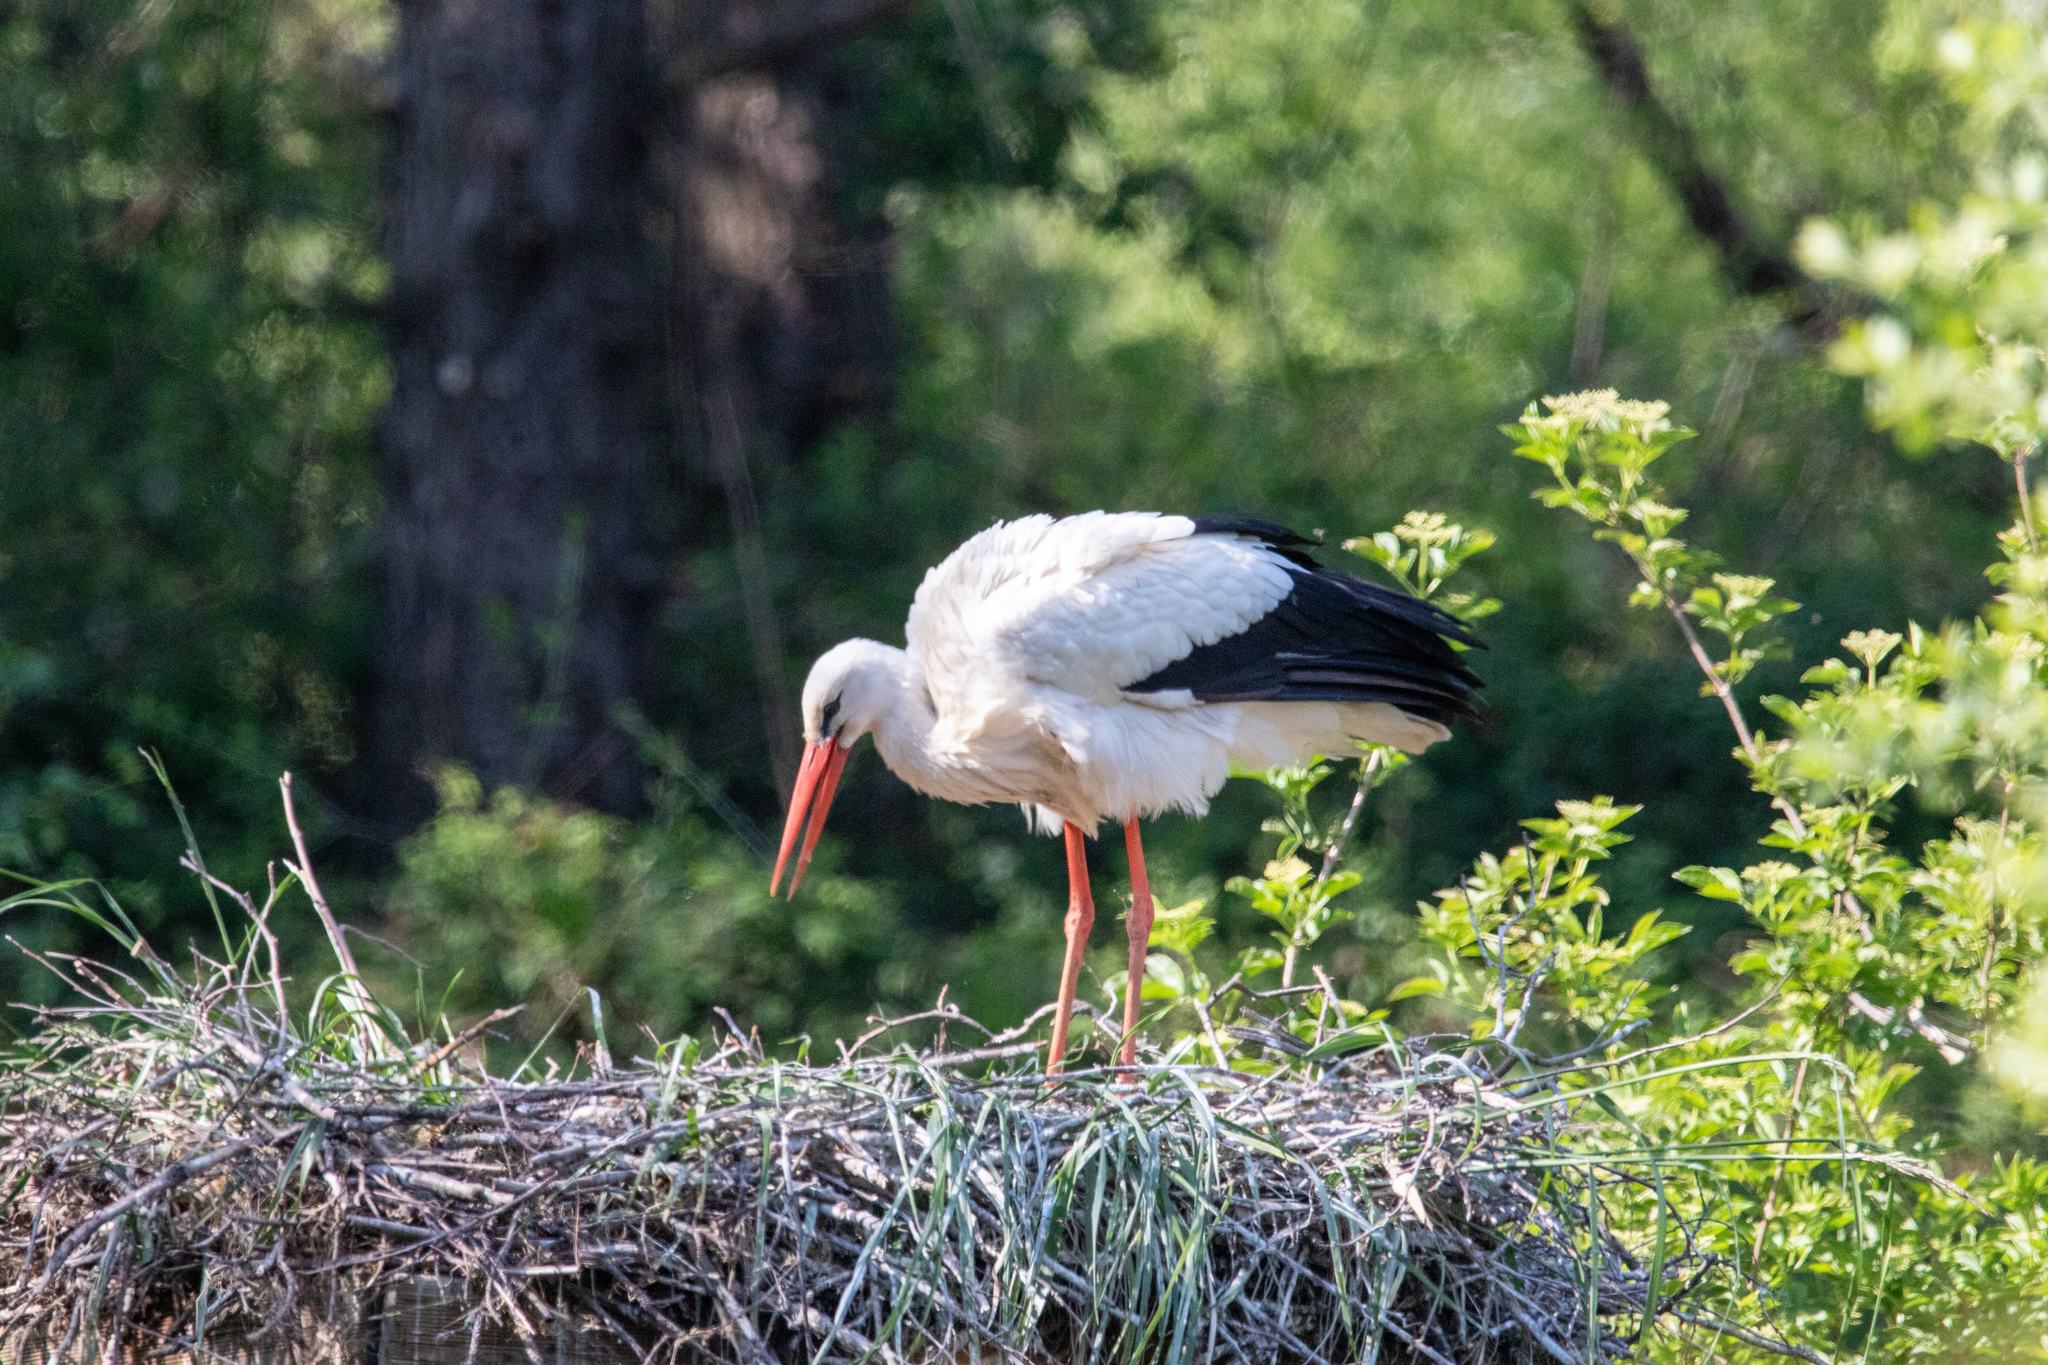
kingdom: Animalia
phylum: Chordata
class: Aves
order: Ciconiiformes
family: Ciconiidae
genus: Ciconia
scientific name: Ciconia ciconia
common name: White stork
